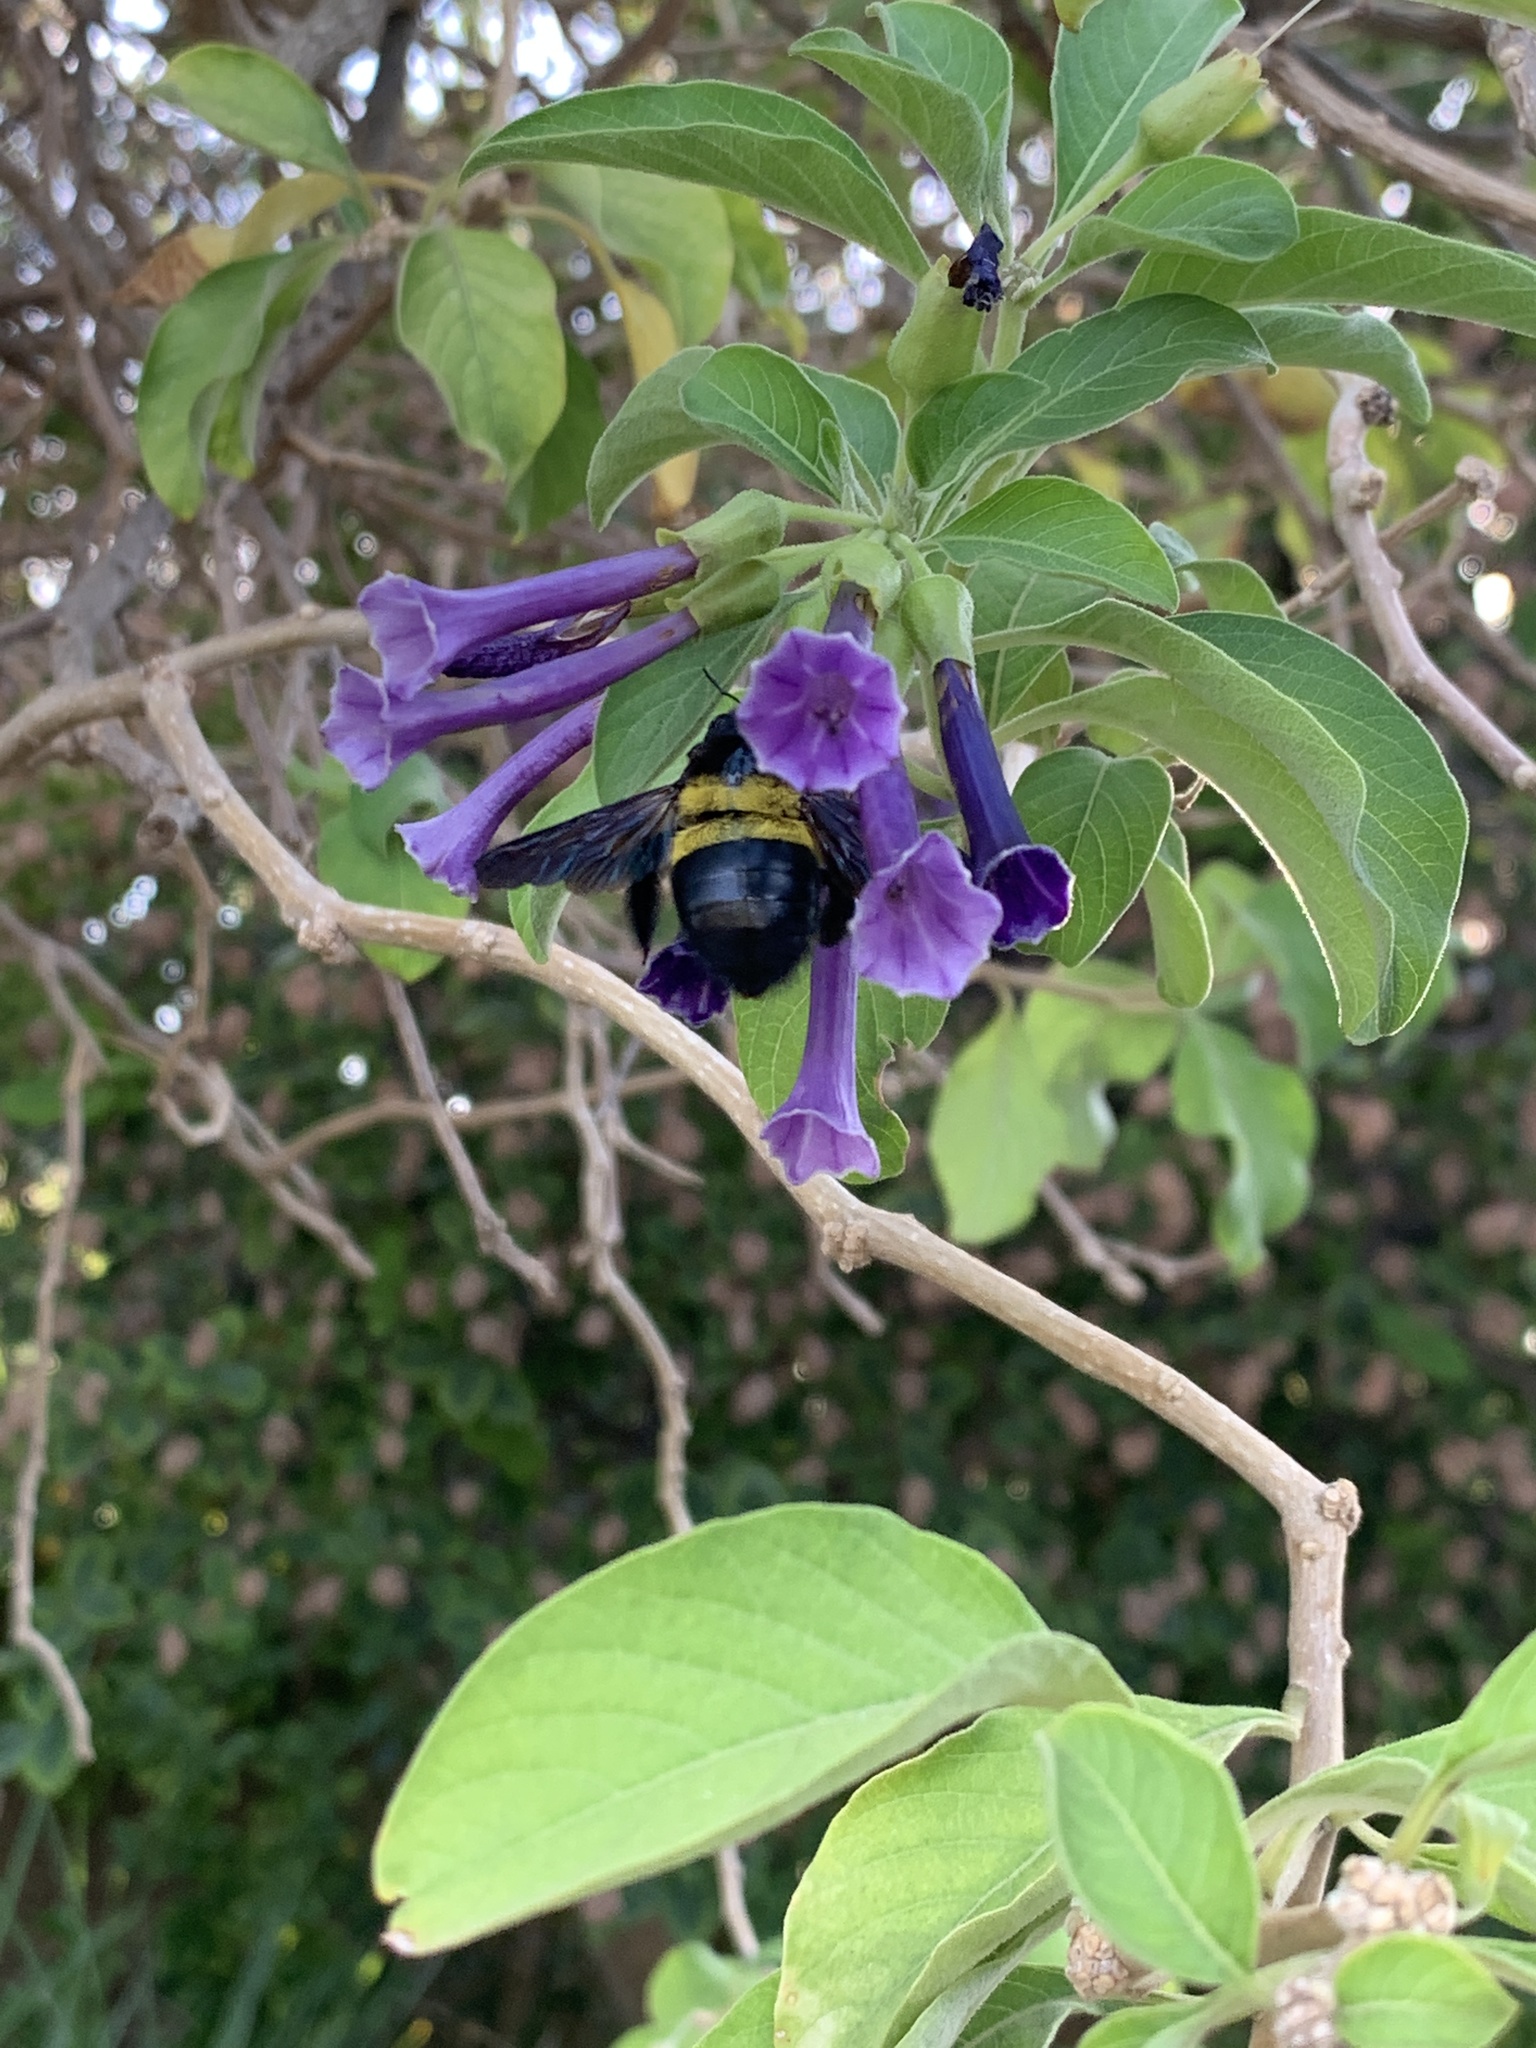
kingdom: Animalia
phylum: Arthropoda
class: Insecta
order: Hymenoptera
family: Apidae
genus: Xylocopa
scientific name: Xylocopa caffra
